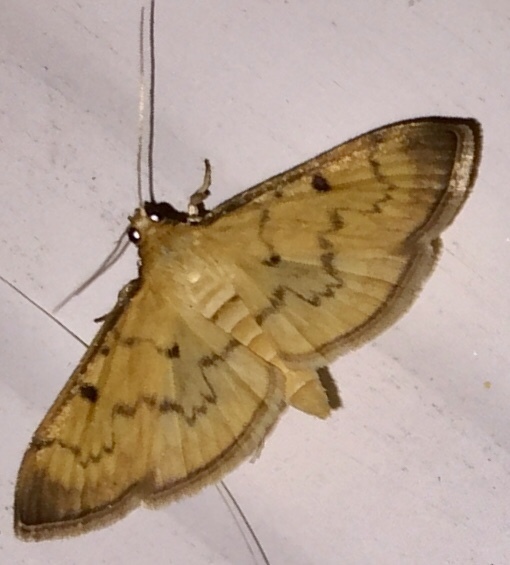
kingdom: Animalia
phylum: Arthropoda
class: Insecta
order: Lepidoptera
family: Crambidae
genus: Herpetogramma
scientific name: Herpetogramma bipunctalis
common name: Southern beet webworm
